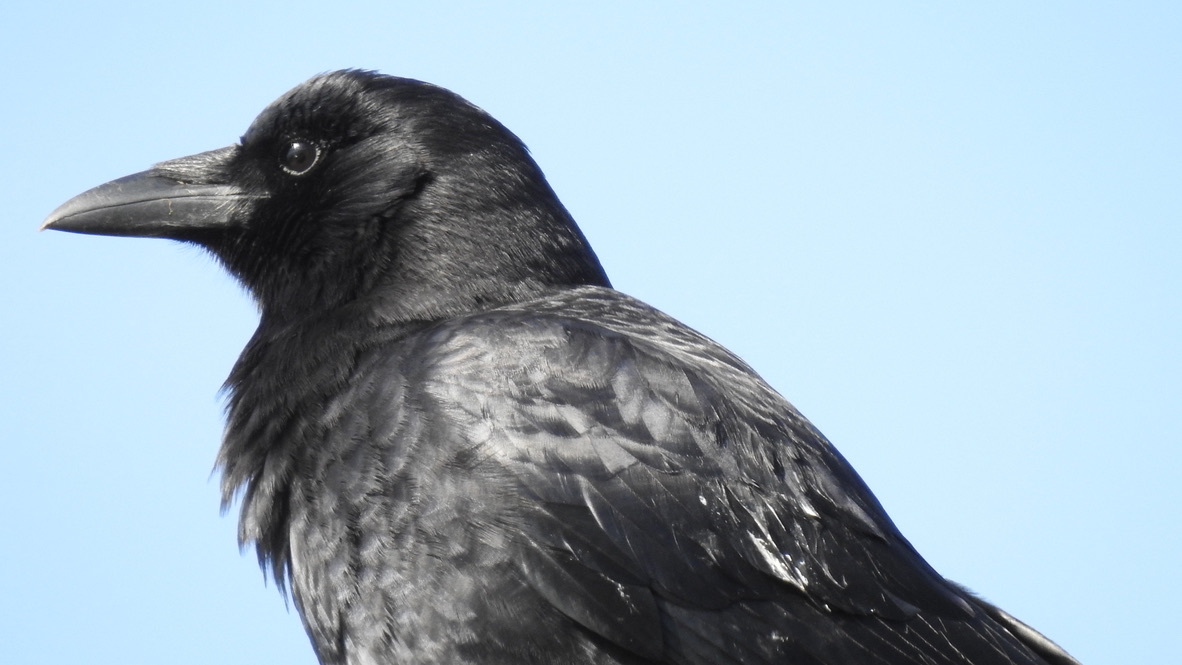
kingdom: Animalia
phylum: Chordata
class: Aves
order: Passeriformes
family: Corvidae
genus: Corvus
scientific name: Corvus brachyrhynchos
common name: American crow
